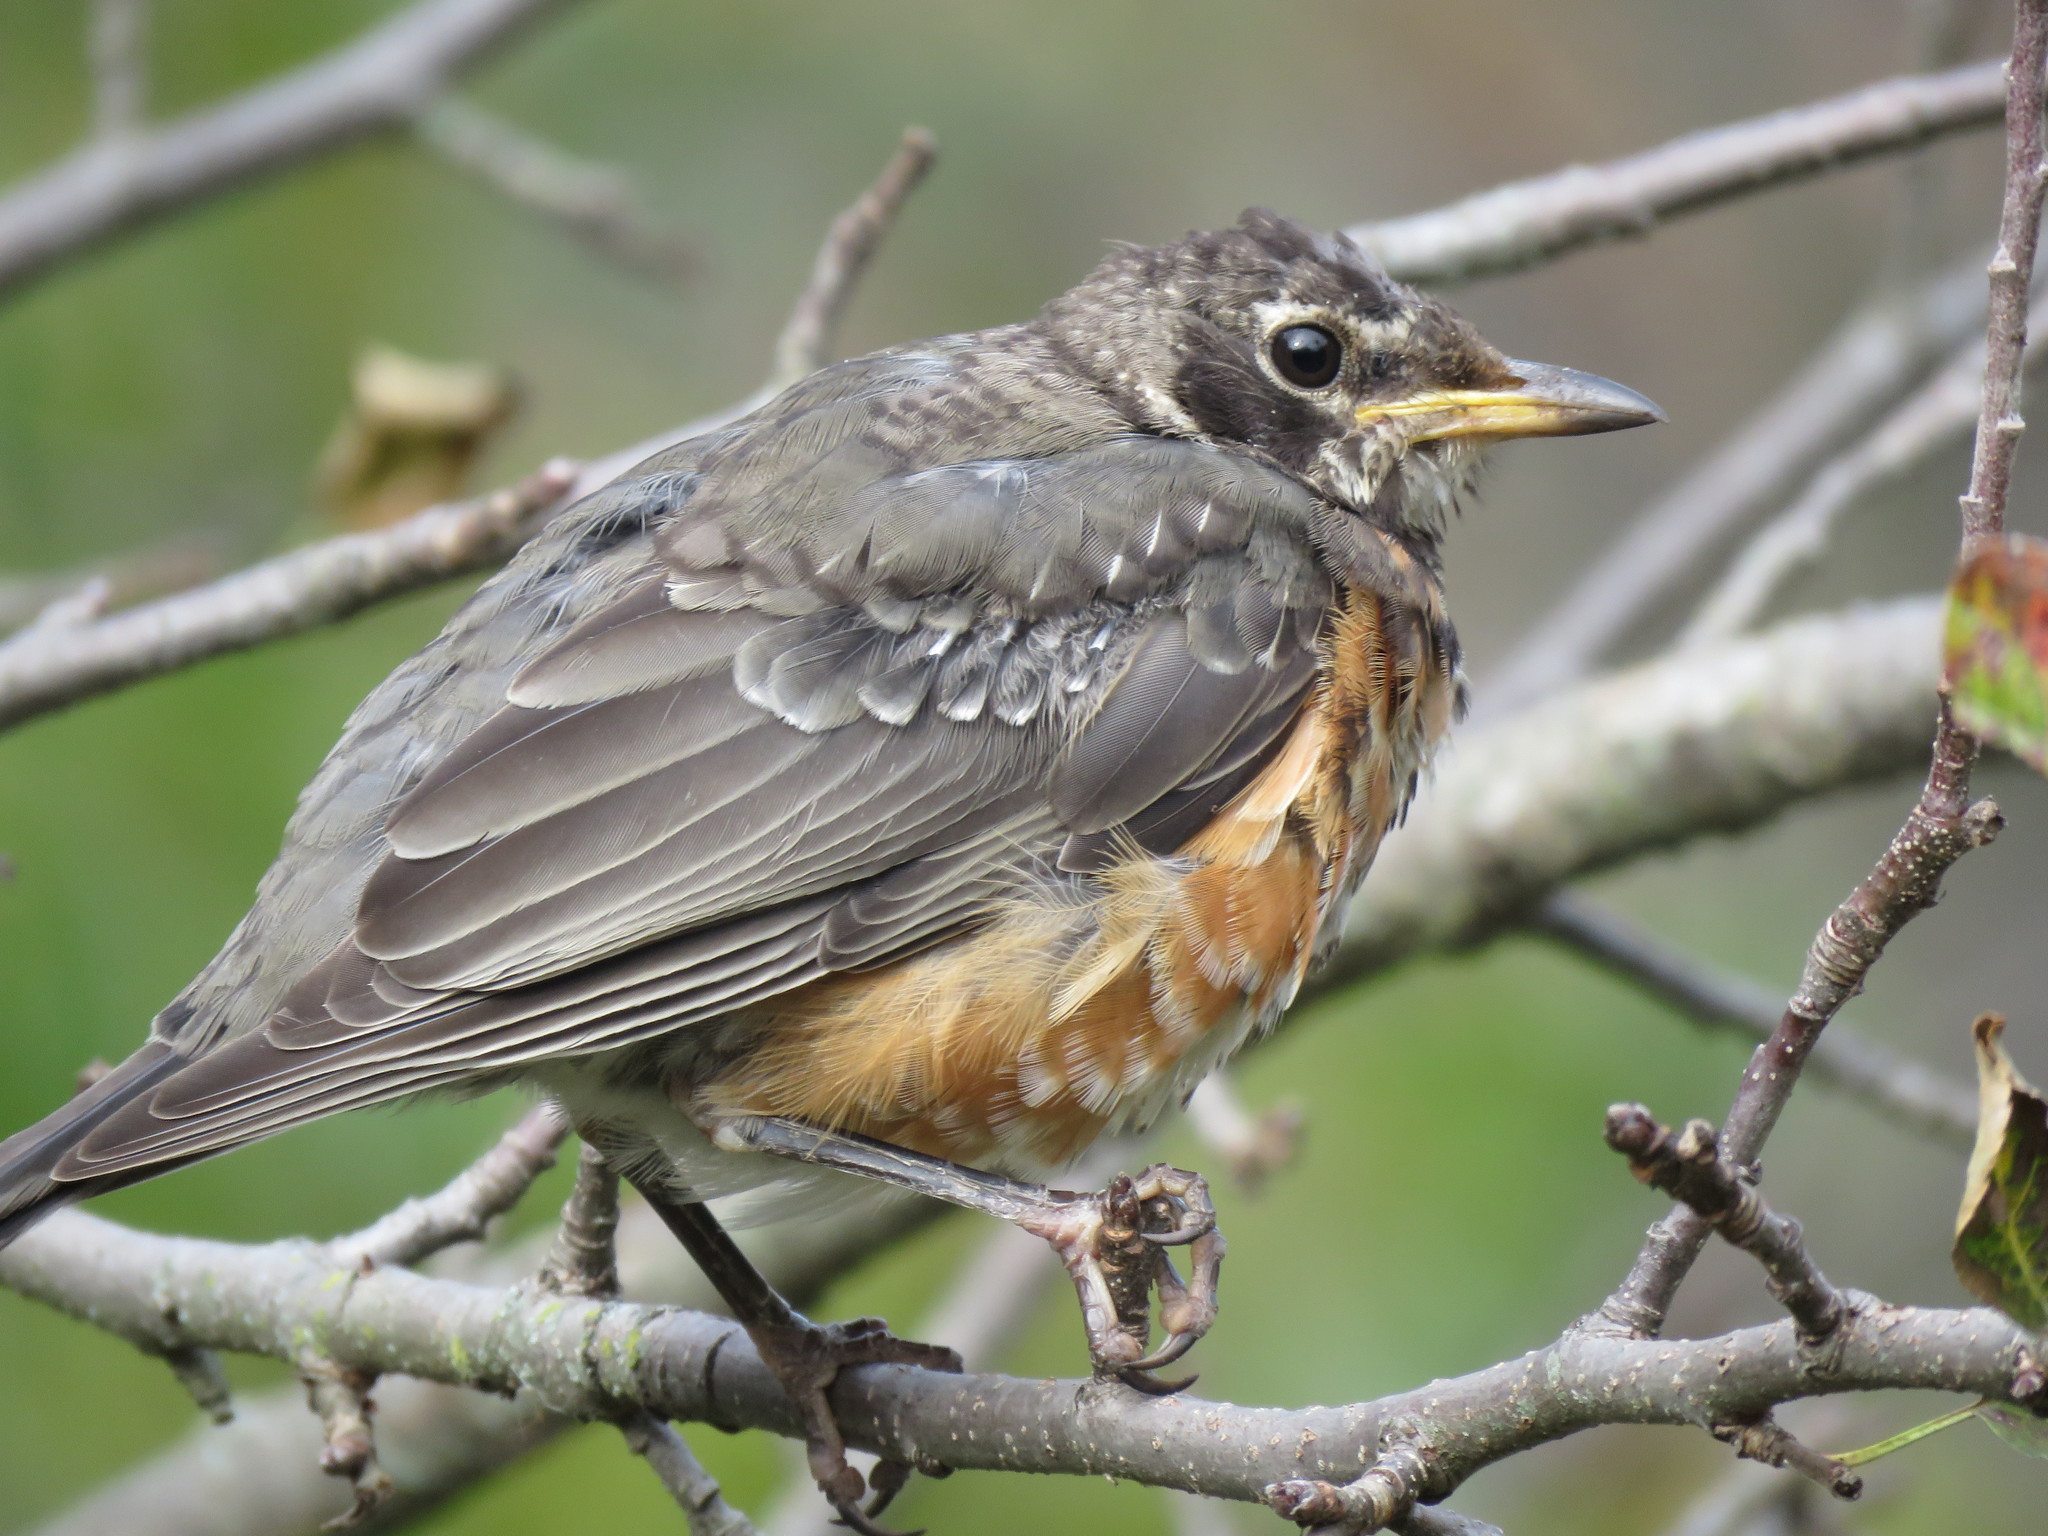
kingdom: Animalia
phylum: Chordata
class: Aves
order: Passeriformes
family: Turdidae
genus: Turdus
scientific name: Turdus migratorius
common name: American robin
